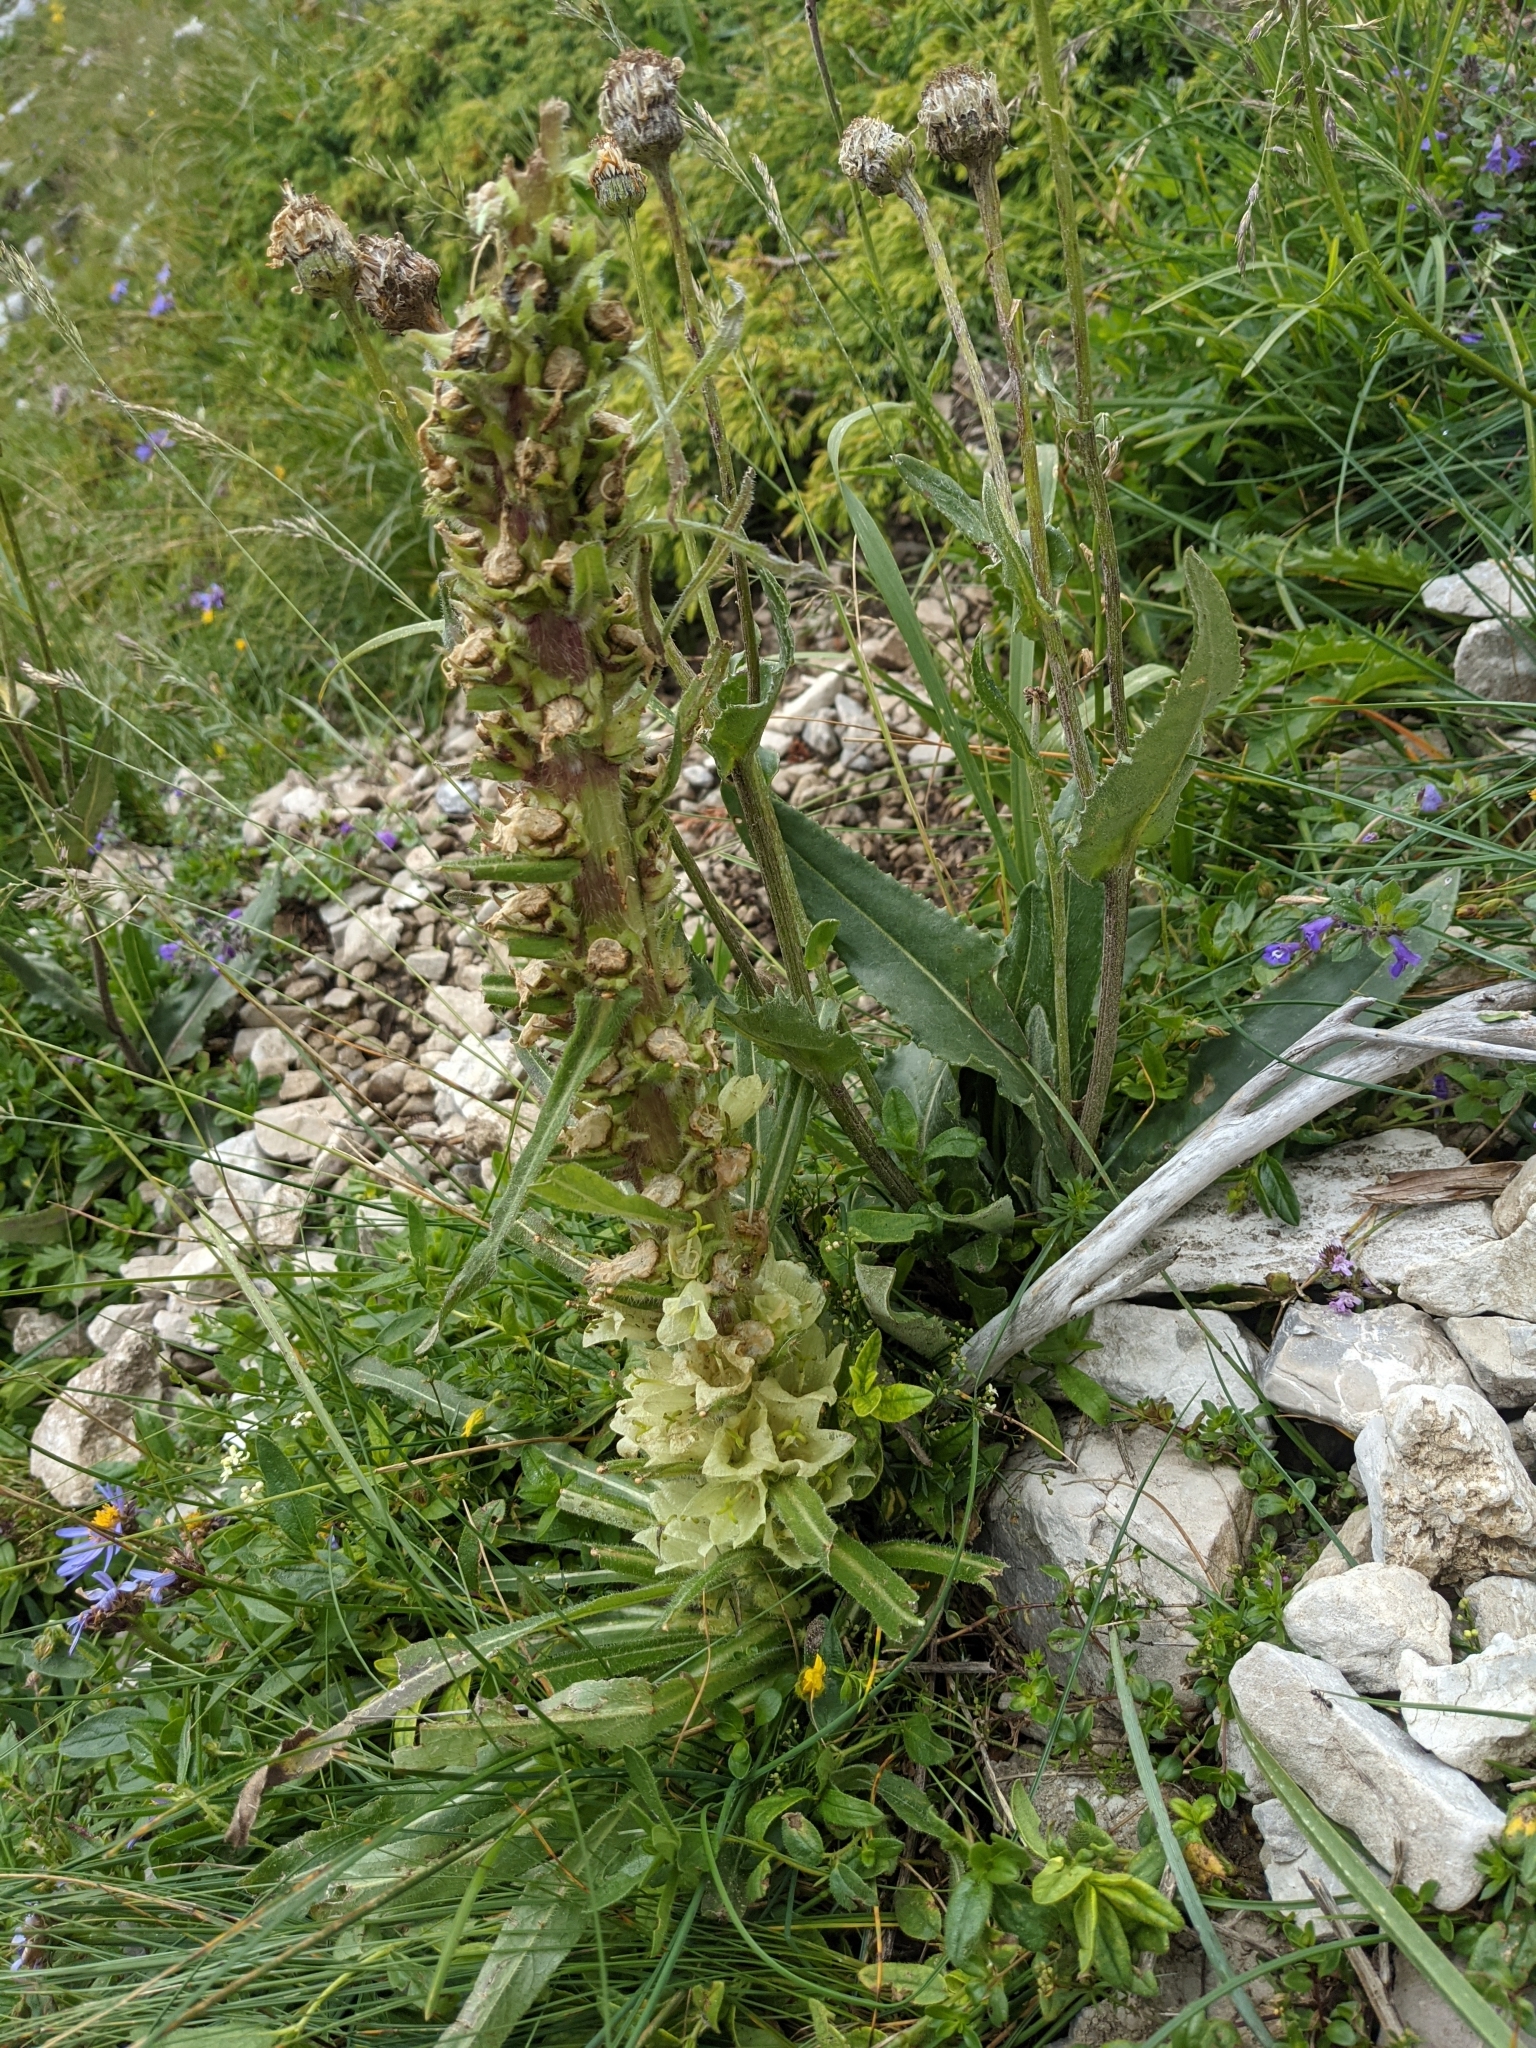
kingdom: Plantae
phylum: Tracheophyta
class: Magnoliopsida
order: Asterales
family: Campanulaceae
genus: Campanula
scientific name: Campanula thyrsoides
